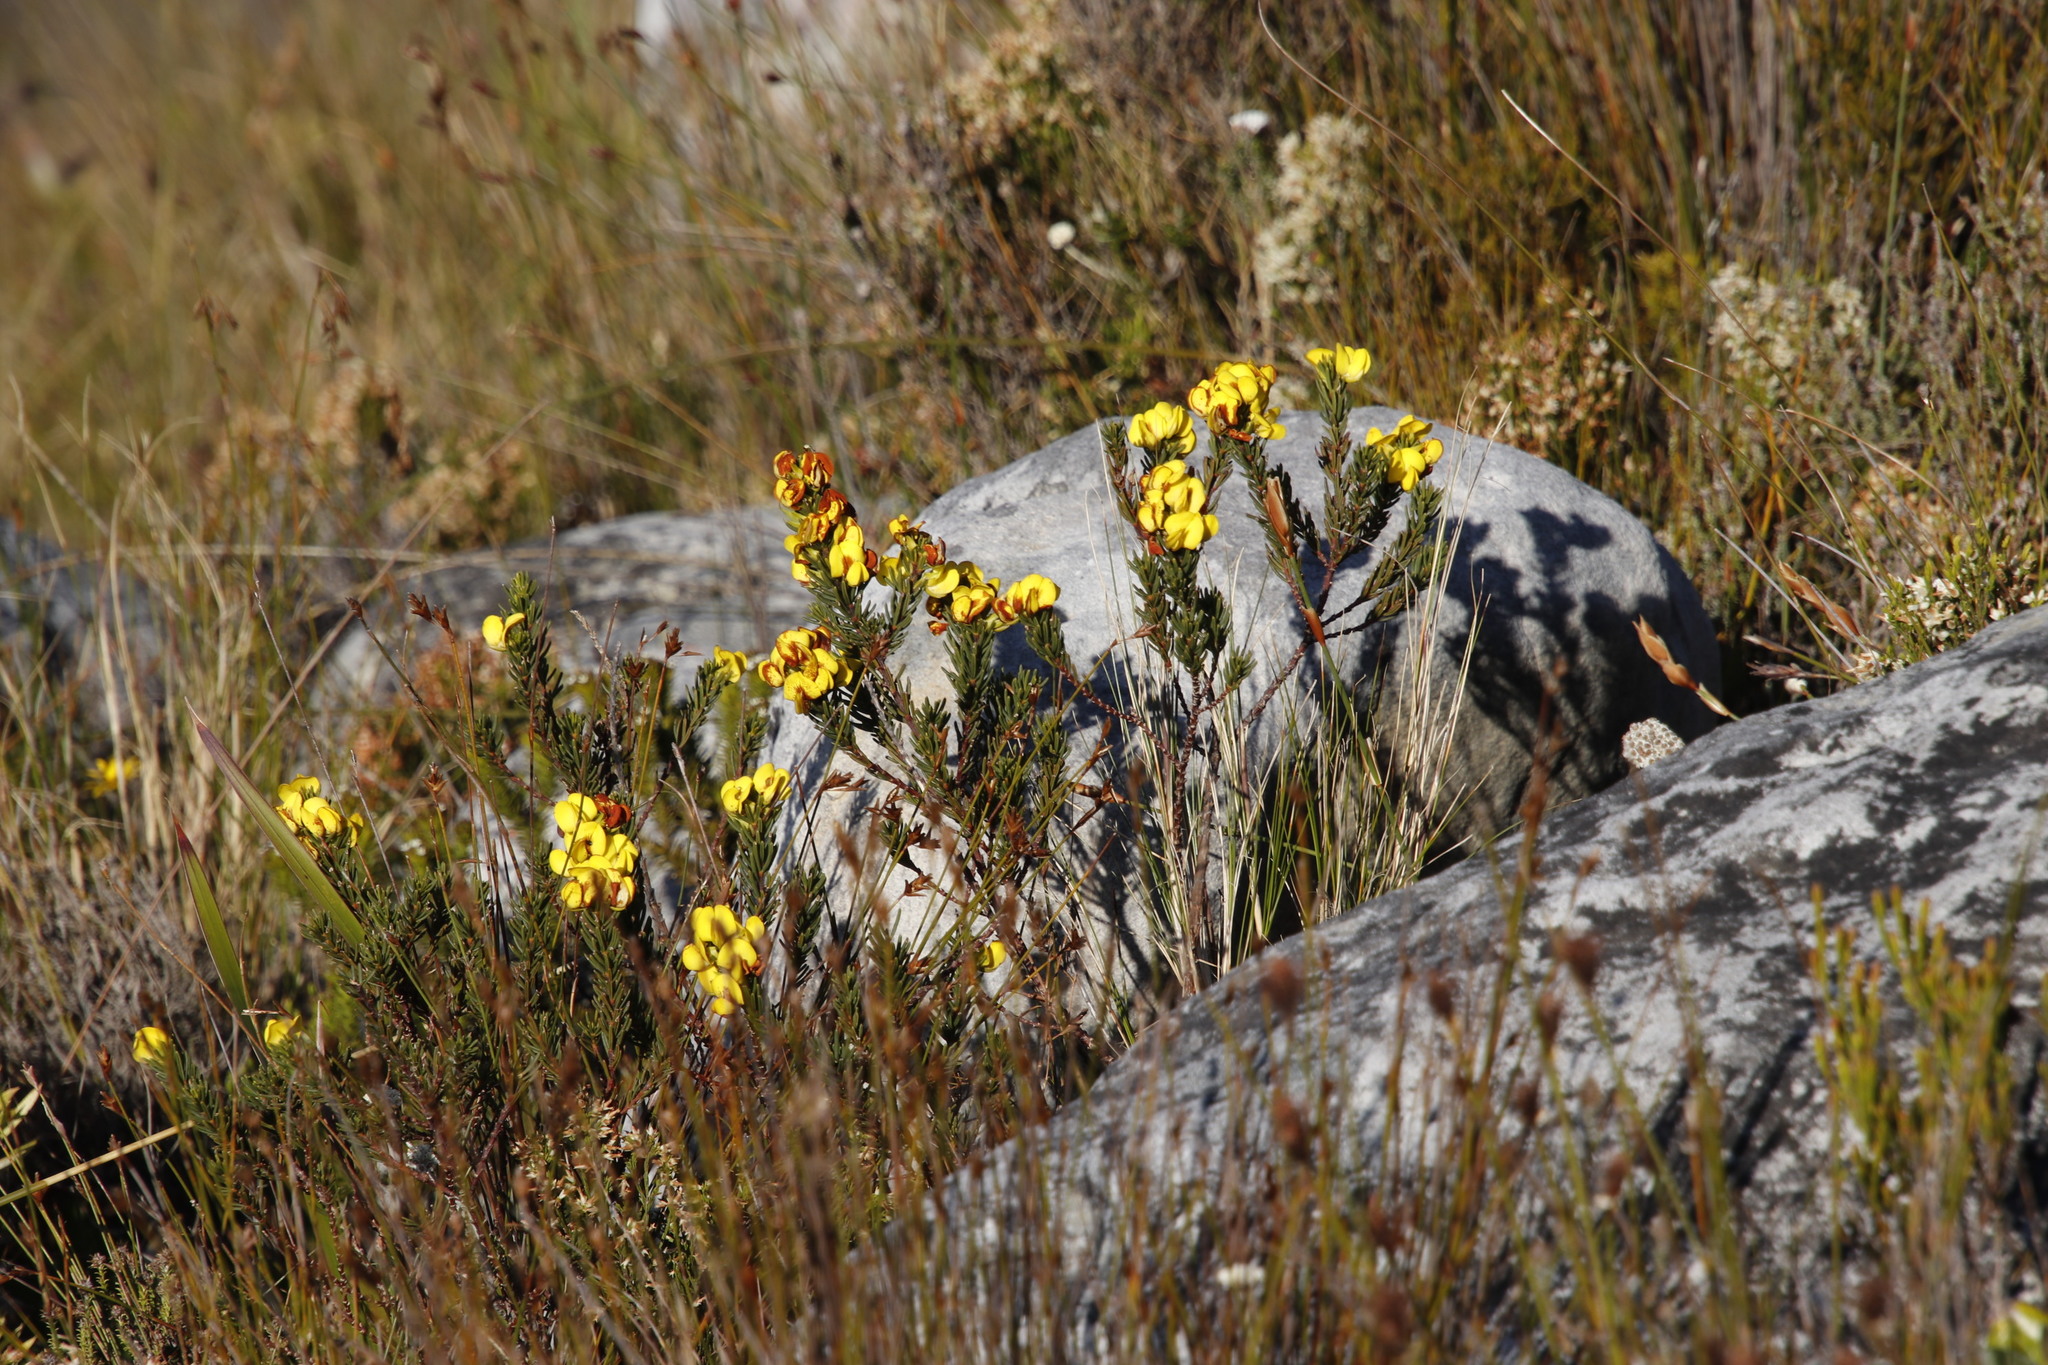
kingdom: Plantae
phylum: Tracheophyta
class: Magnoliopsida
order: Fabales
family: Fabaceae
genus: Cyclopia
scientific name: Cyclopia galioides
